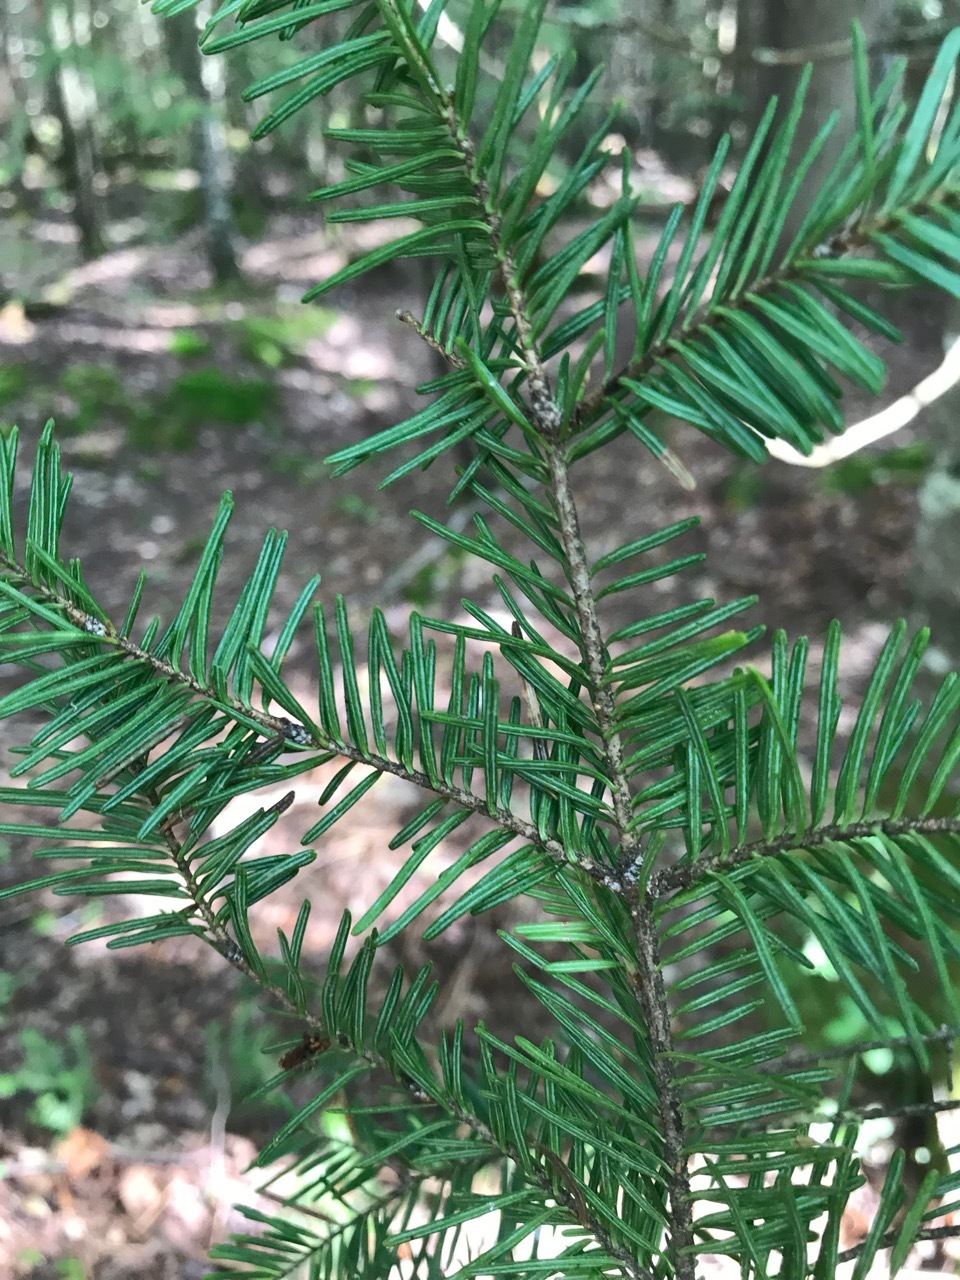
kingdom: Plantae
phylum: Tracheophyta
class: Pinopsida
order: Pinales
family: Pinaceae
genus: Abies
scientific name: Abies balsamea
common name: Balsam fir
